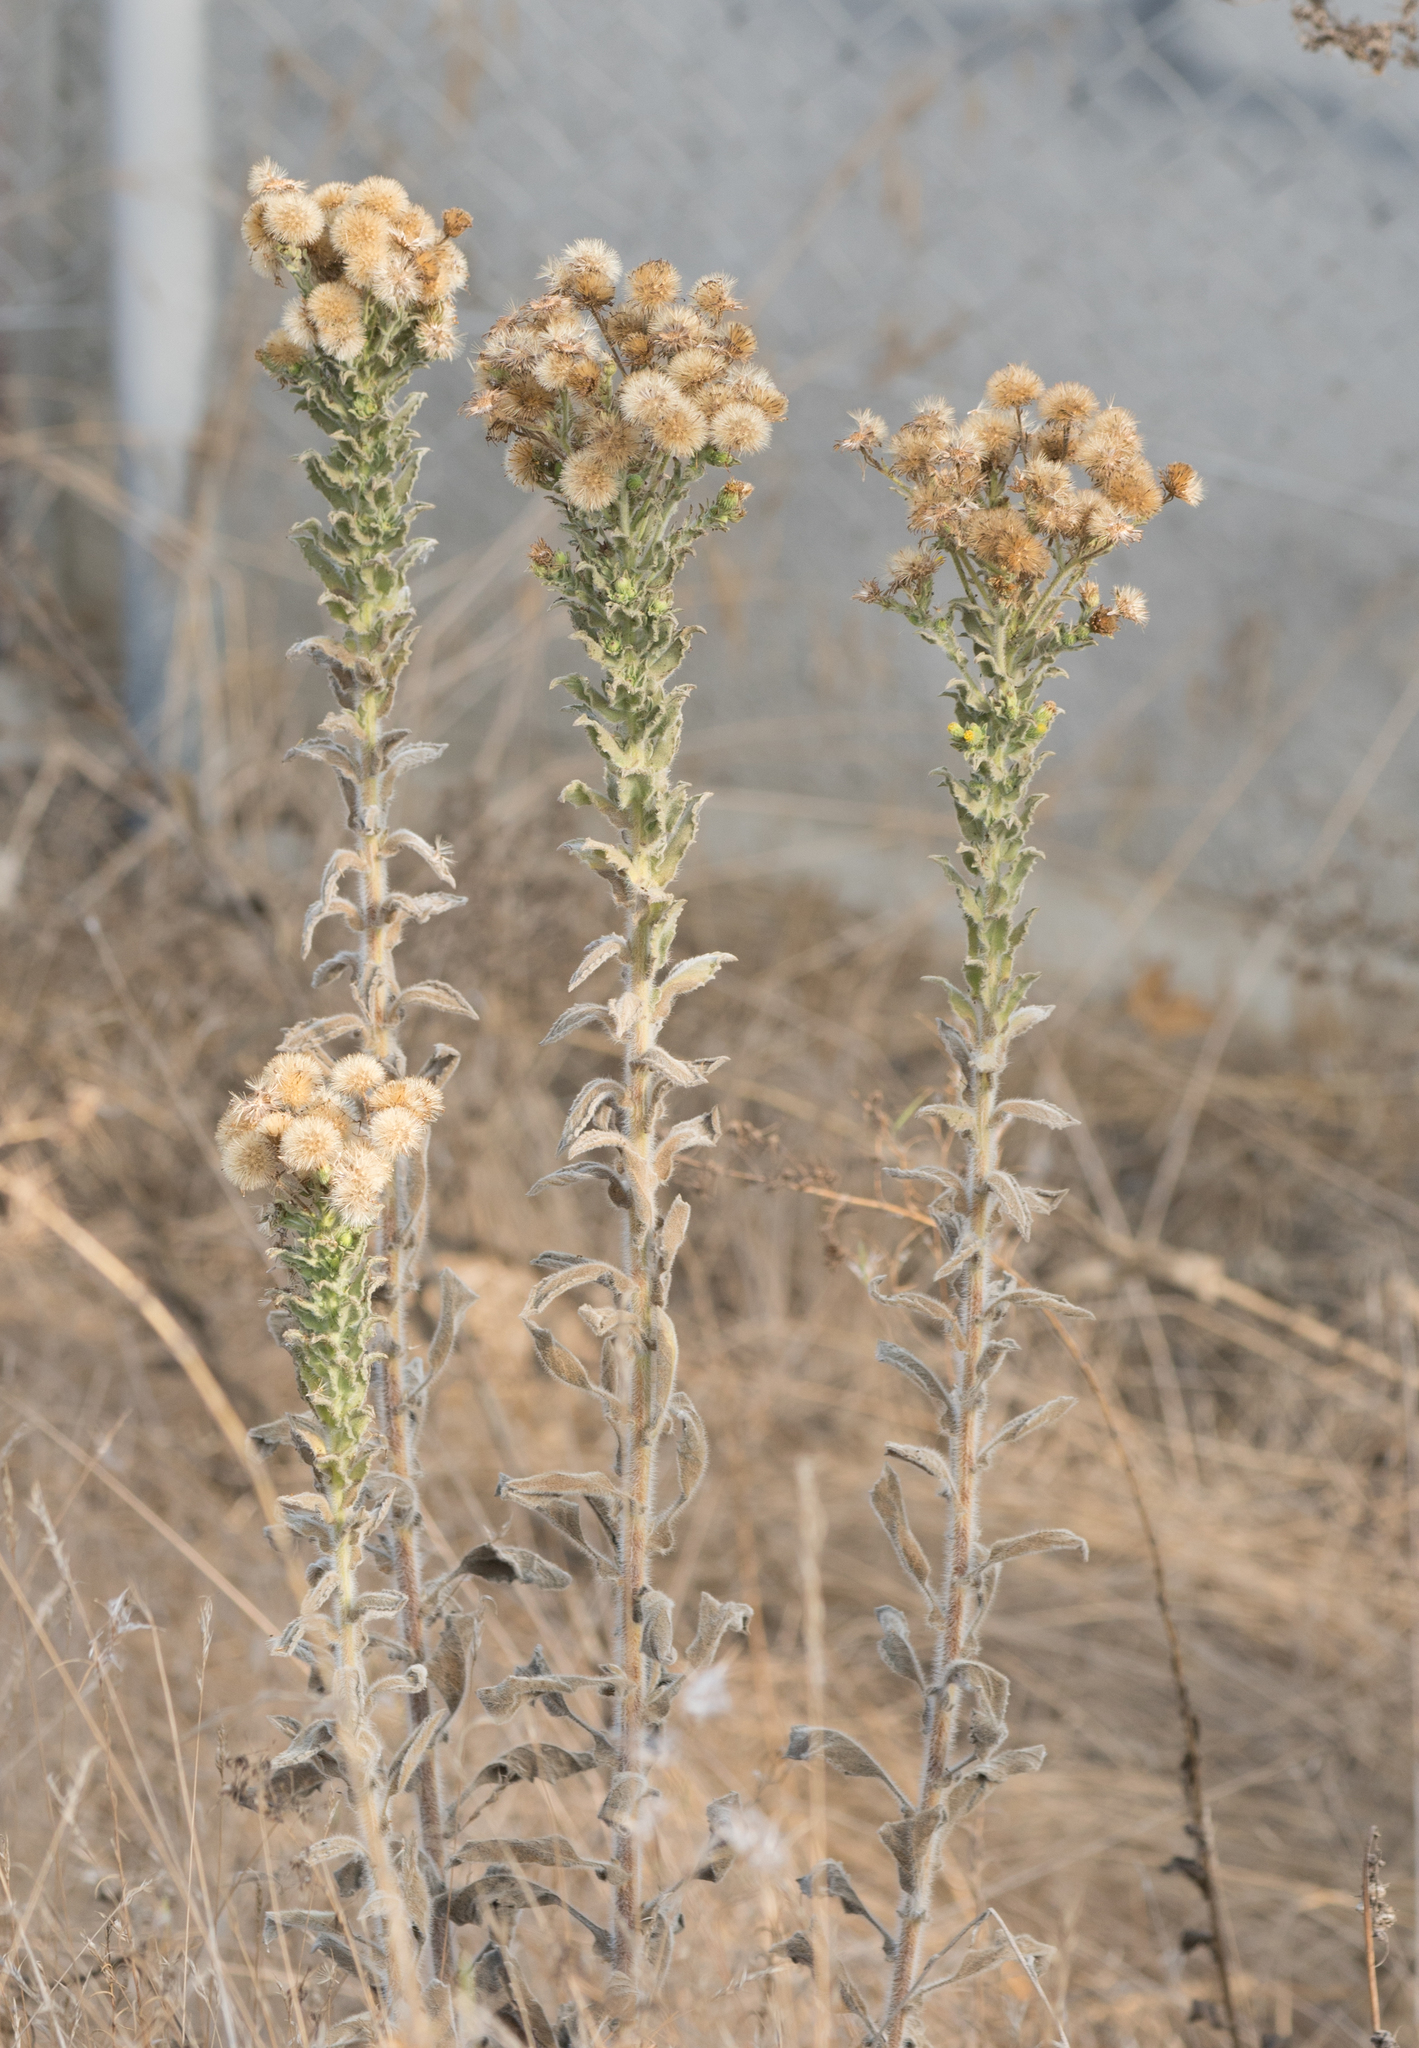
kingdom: Plantae
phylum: Tracheophyta
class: Magnoliopsida
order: Asterales
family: Asteraceae
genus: Heterotheca
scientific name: Heterotheca grandiflora
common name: Telegraphweed
